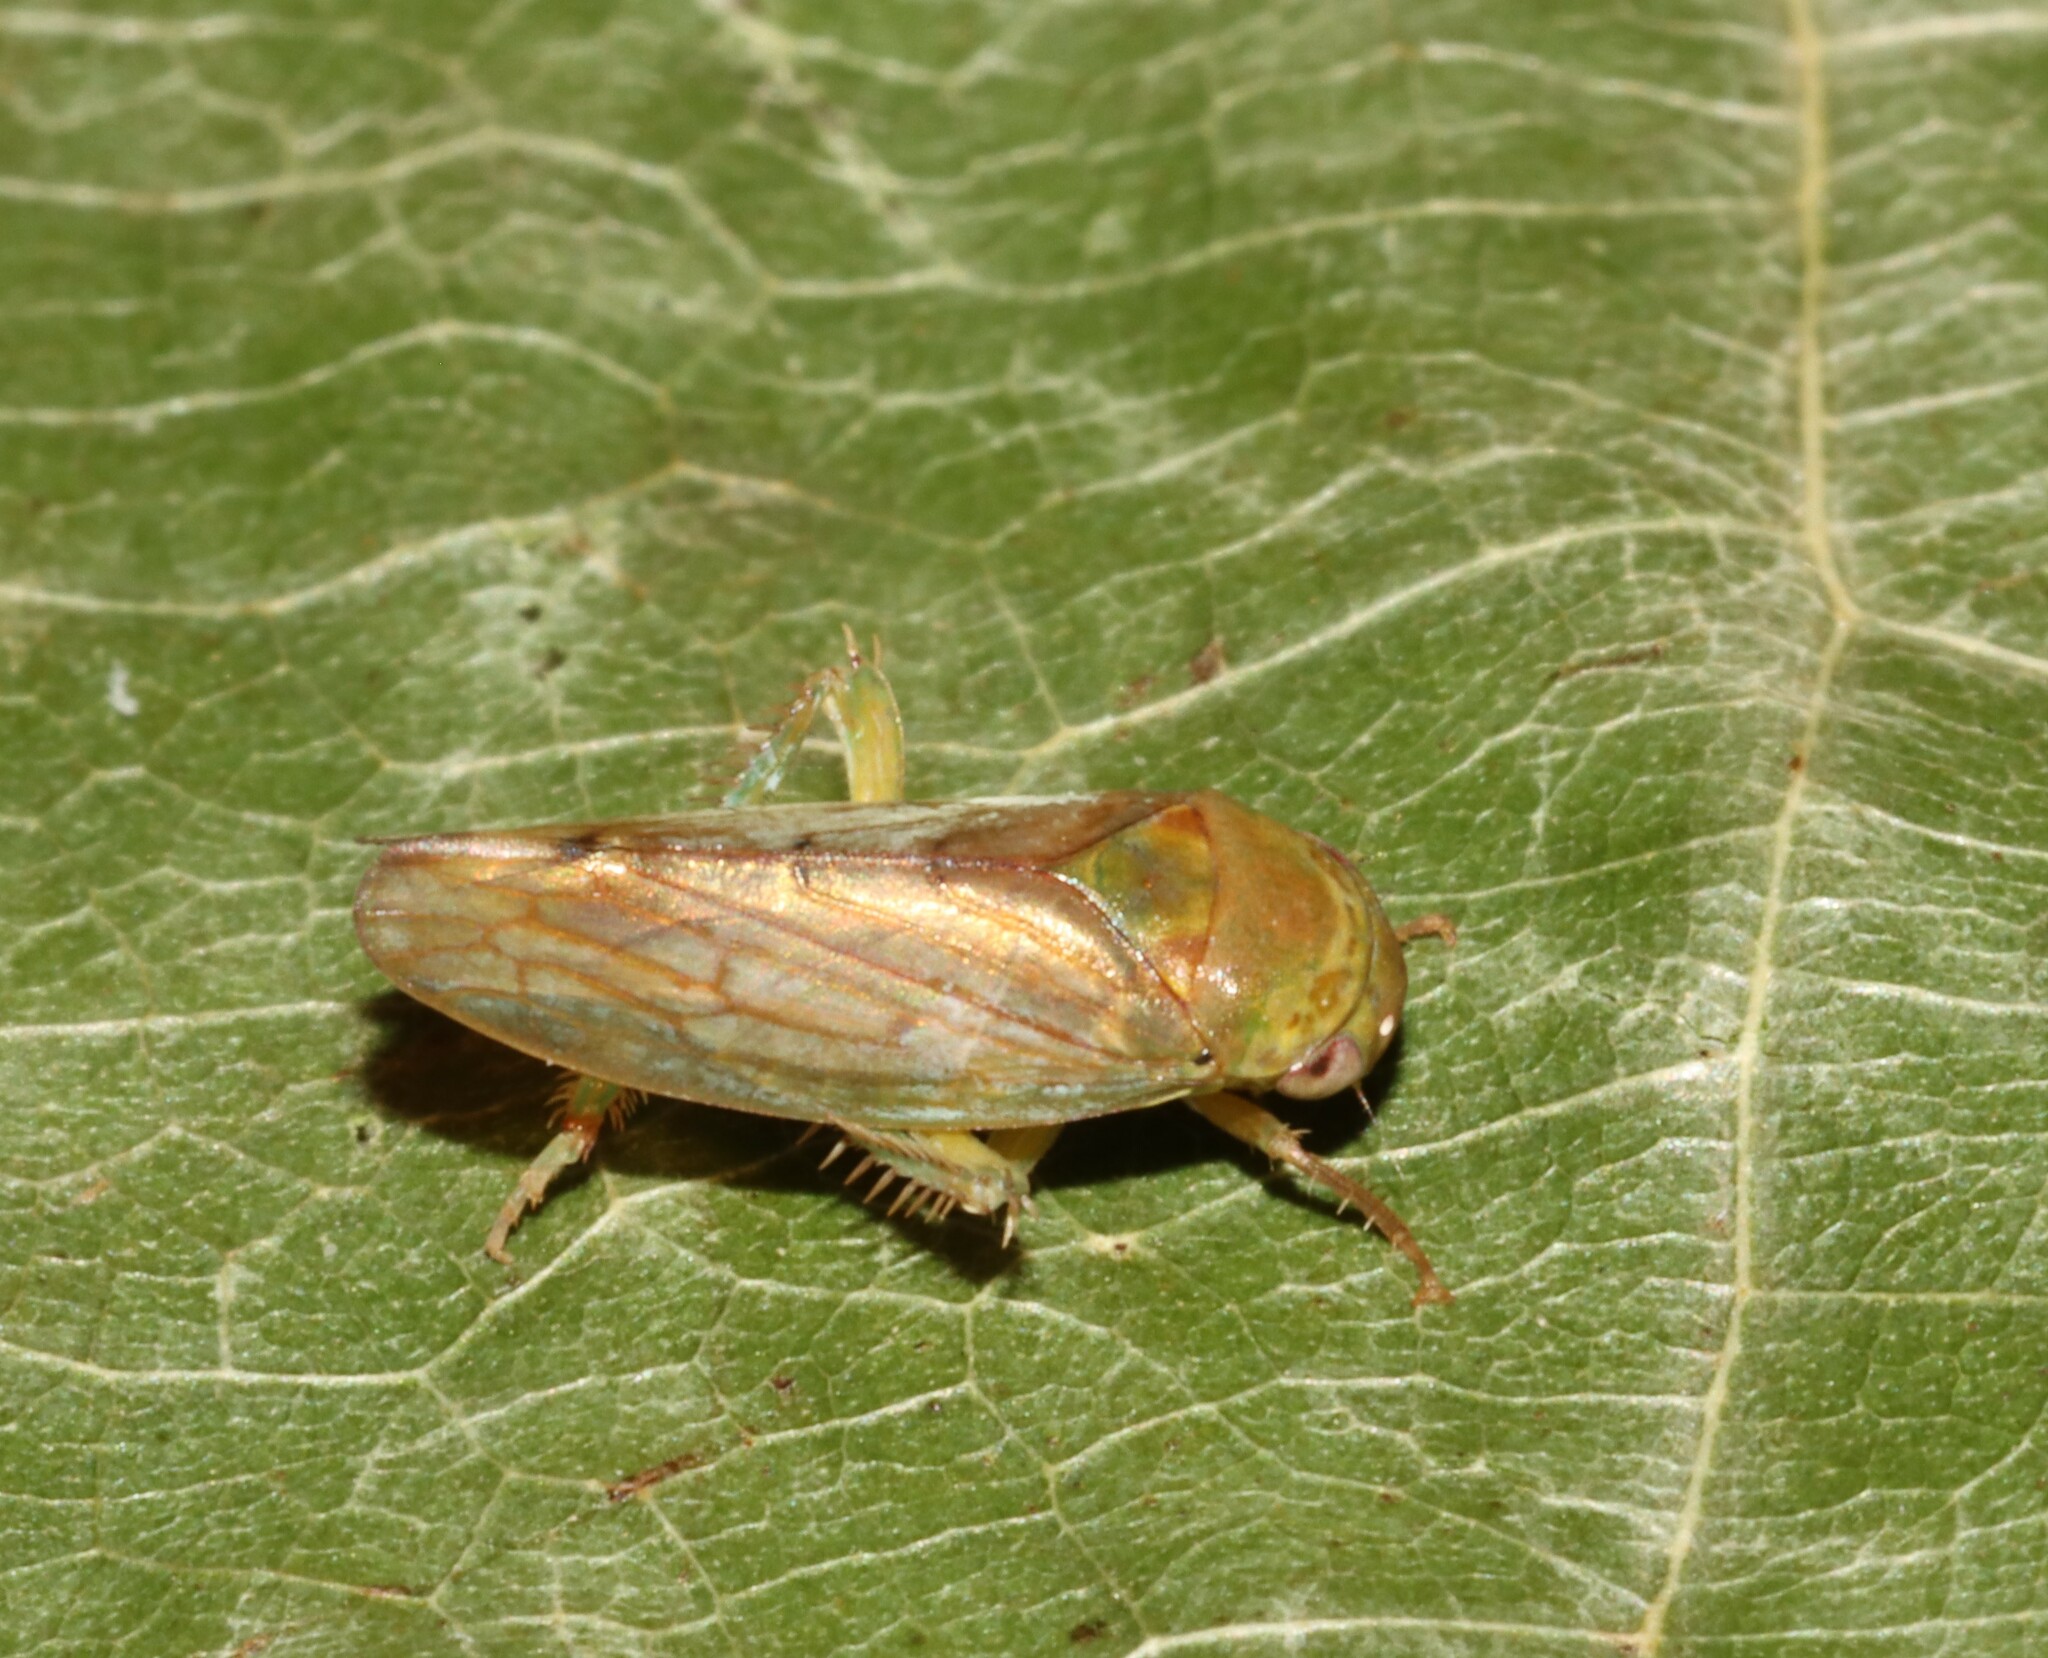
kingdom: Animalia
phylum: Arthropoda
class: Insecta
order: Hemiptera
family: Cicadellidae
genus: Polana
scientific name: Polana quadrinotata
